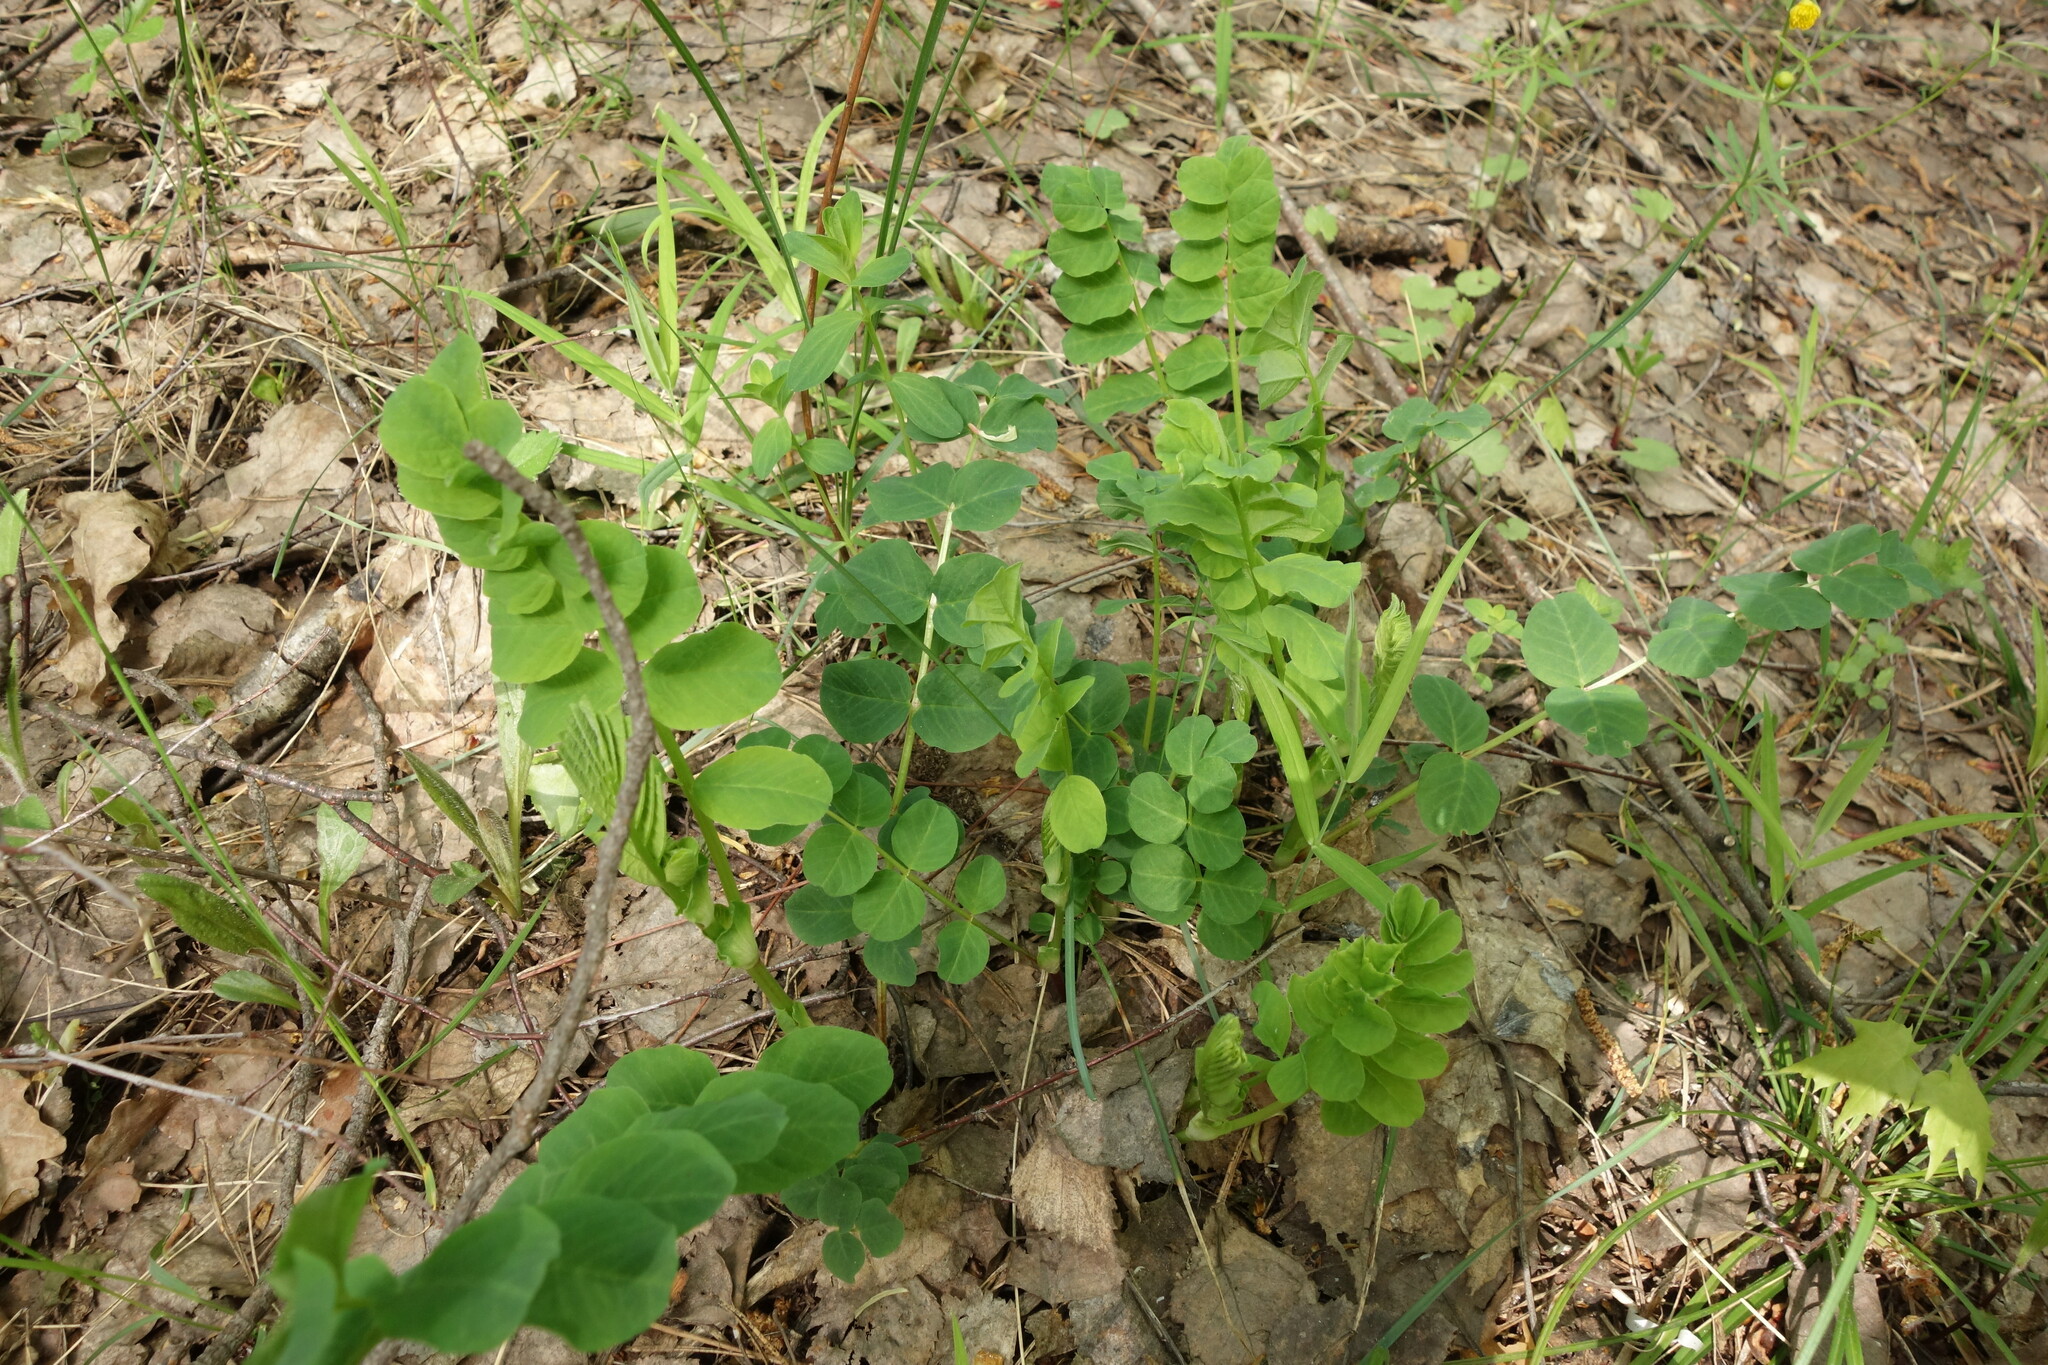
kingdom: Plantae
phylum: Tracheophyta
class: Magnoliopsida
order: Fabales
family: Fabaceae
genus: Astragalus
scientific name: Astragalus glycyphyllos
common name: Wild liquorice
